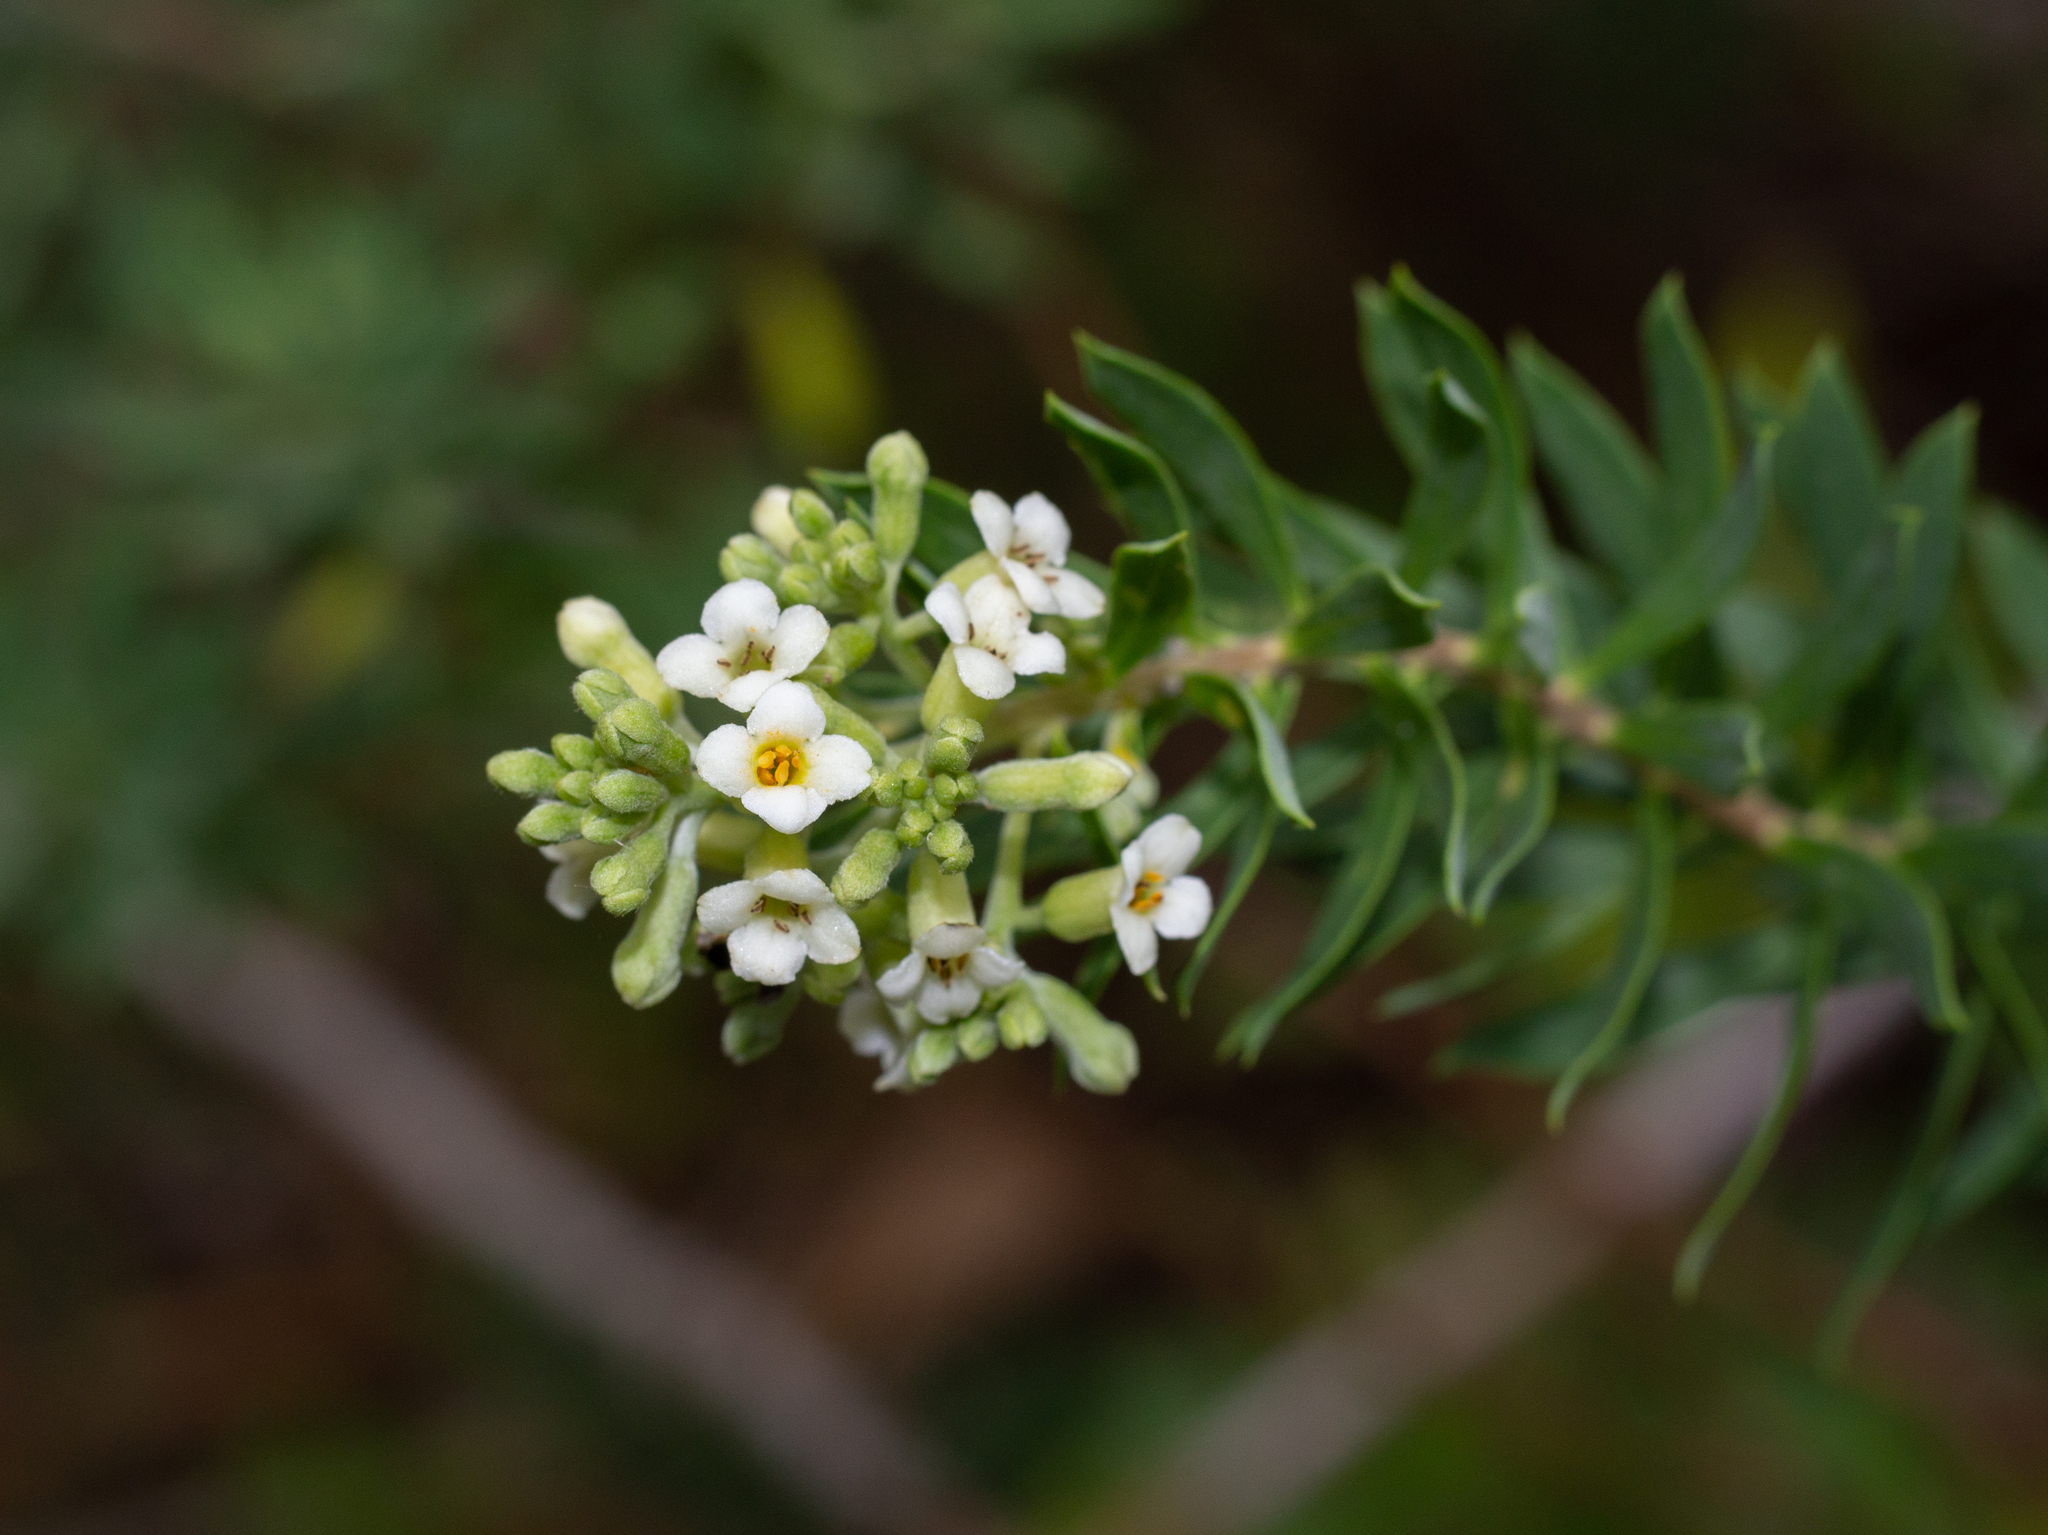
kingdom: Plantae
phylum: Tracheophyta
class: Magnoliopsida
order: Malvales
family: Thymelaeaceae
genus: Daphne
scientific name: Daphne gnidium
